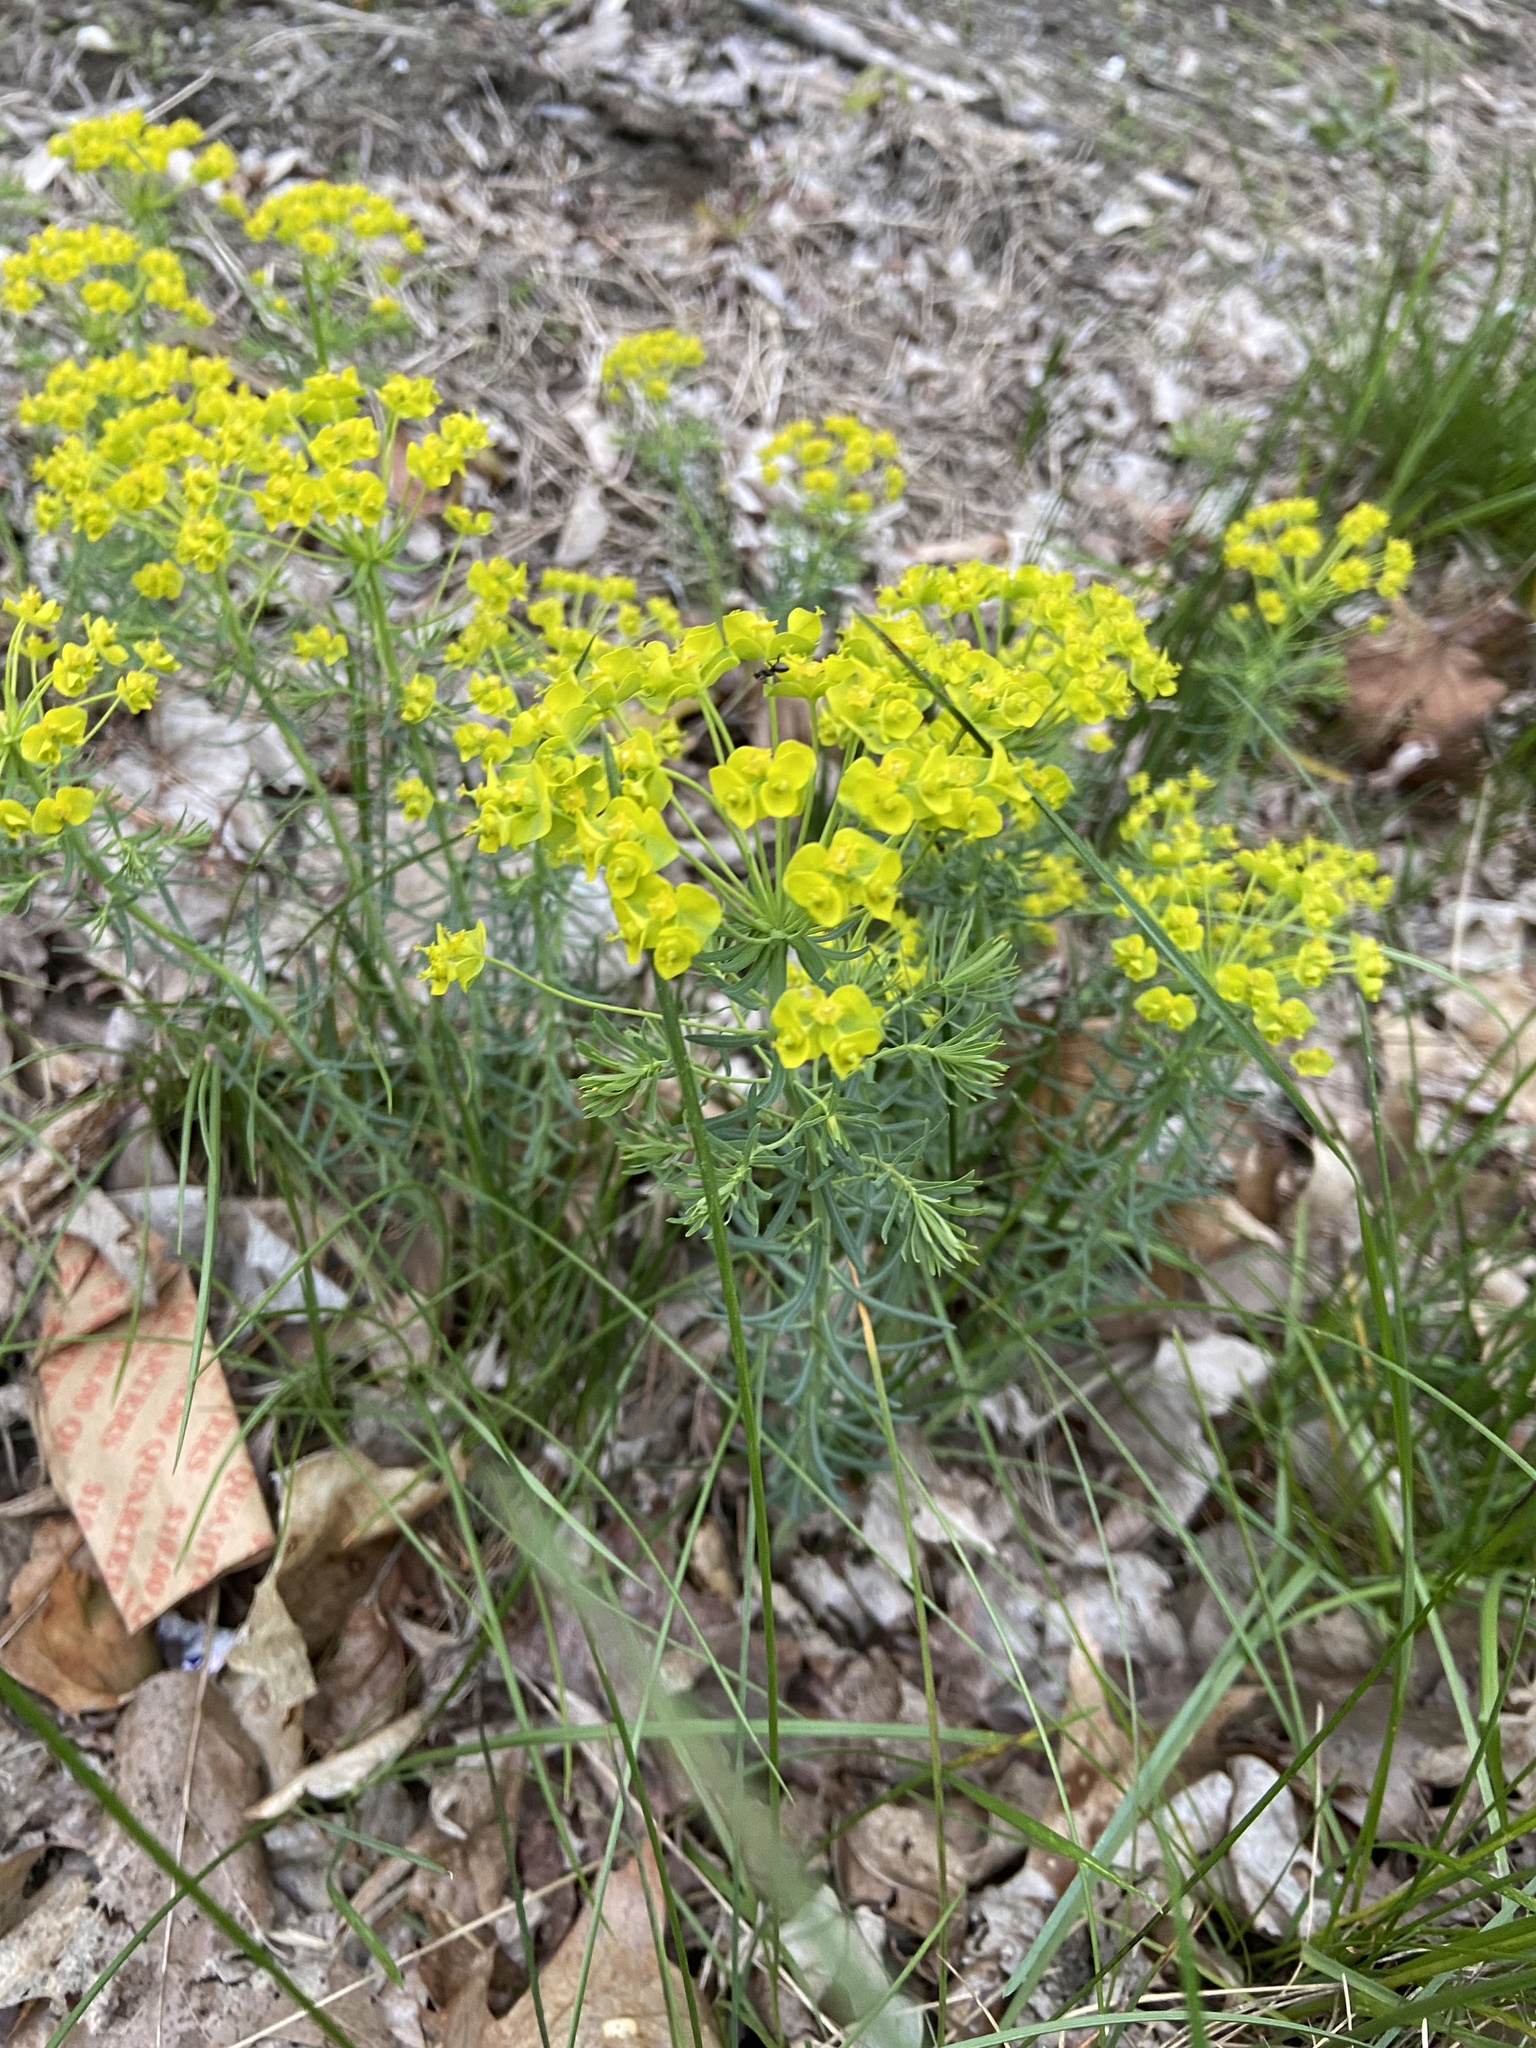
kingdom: Plantae
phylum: Tracheophyta
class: Magnoliopsida
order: Malpighiales
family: Euphorbiaceae
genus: Euphorbia
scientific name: Euphorbia cyparissias
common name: Cypress spurge
